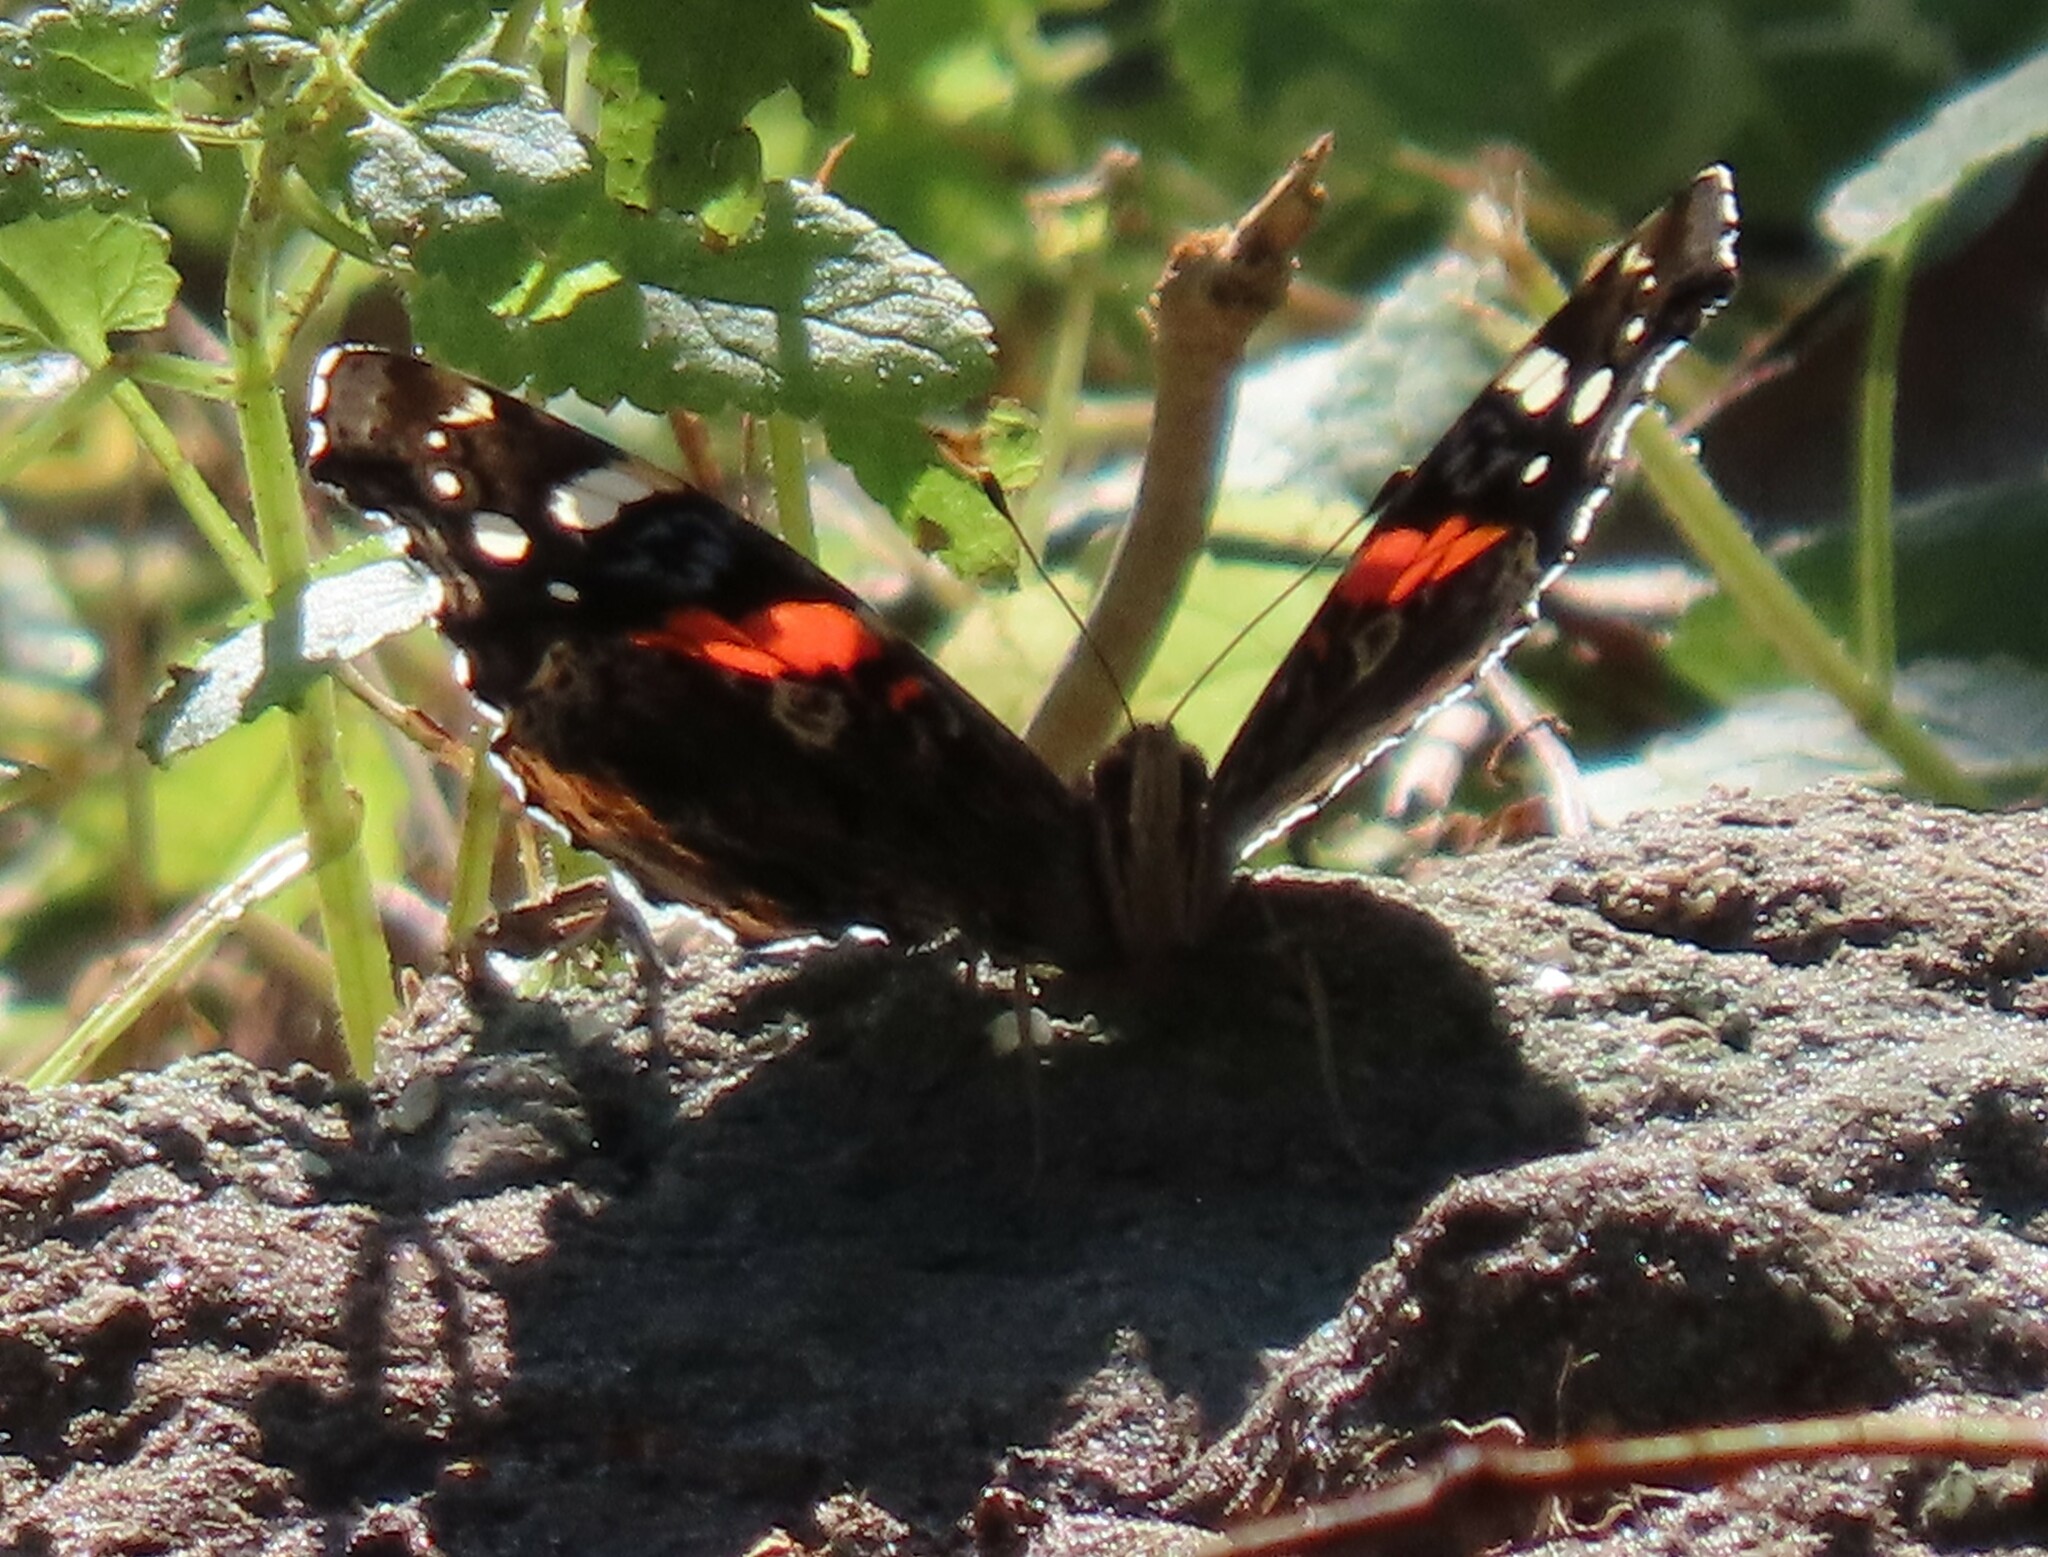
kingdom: Animalia
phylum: Arthropoda
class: Insecta
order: Lepidoptera
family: Nymphalidae
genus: Vanessa
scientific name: Vanessa atalanta
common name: Red admiral
